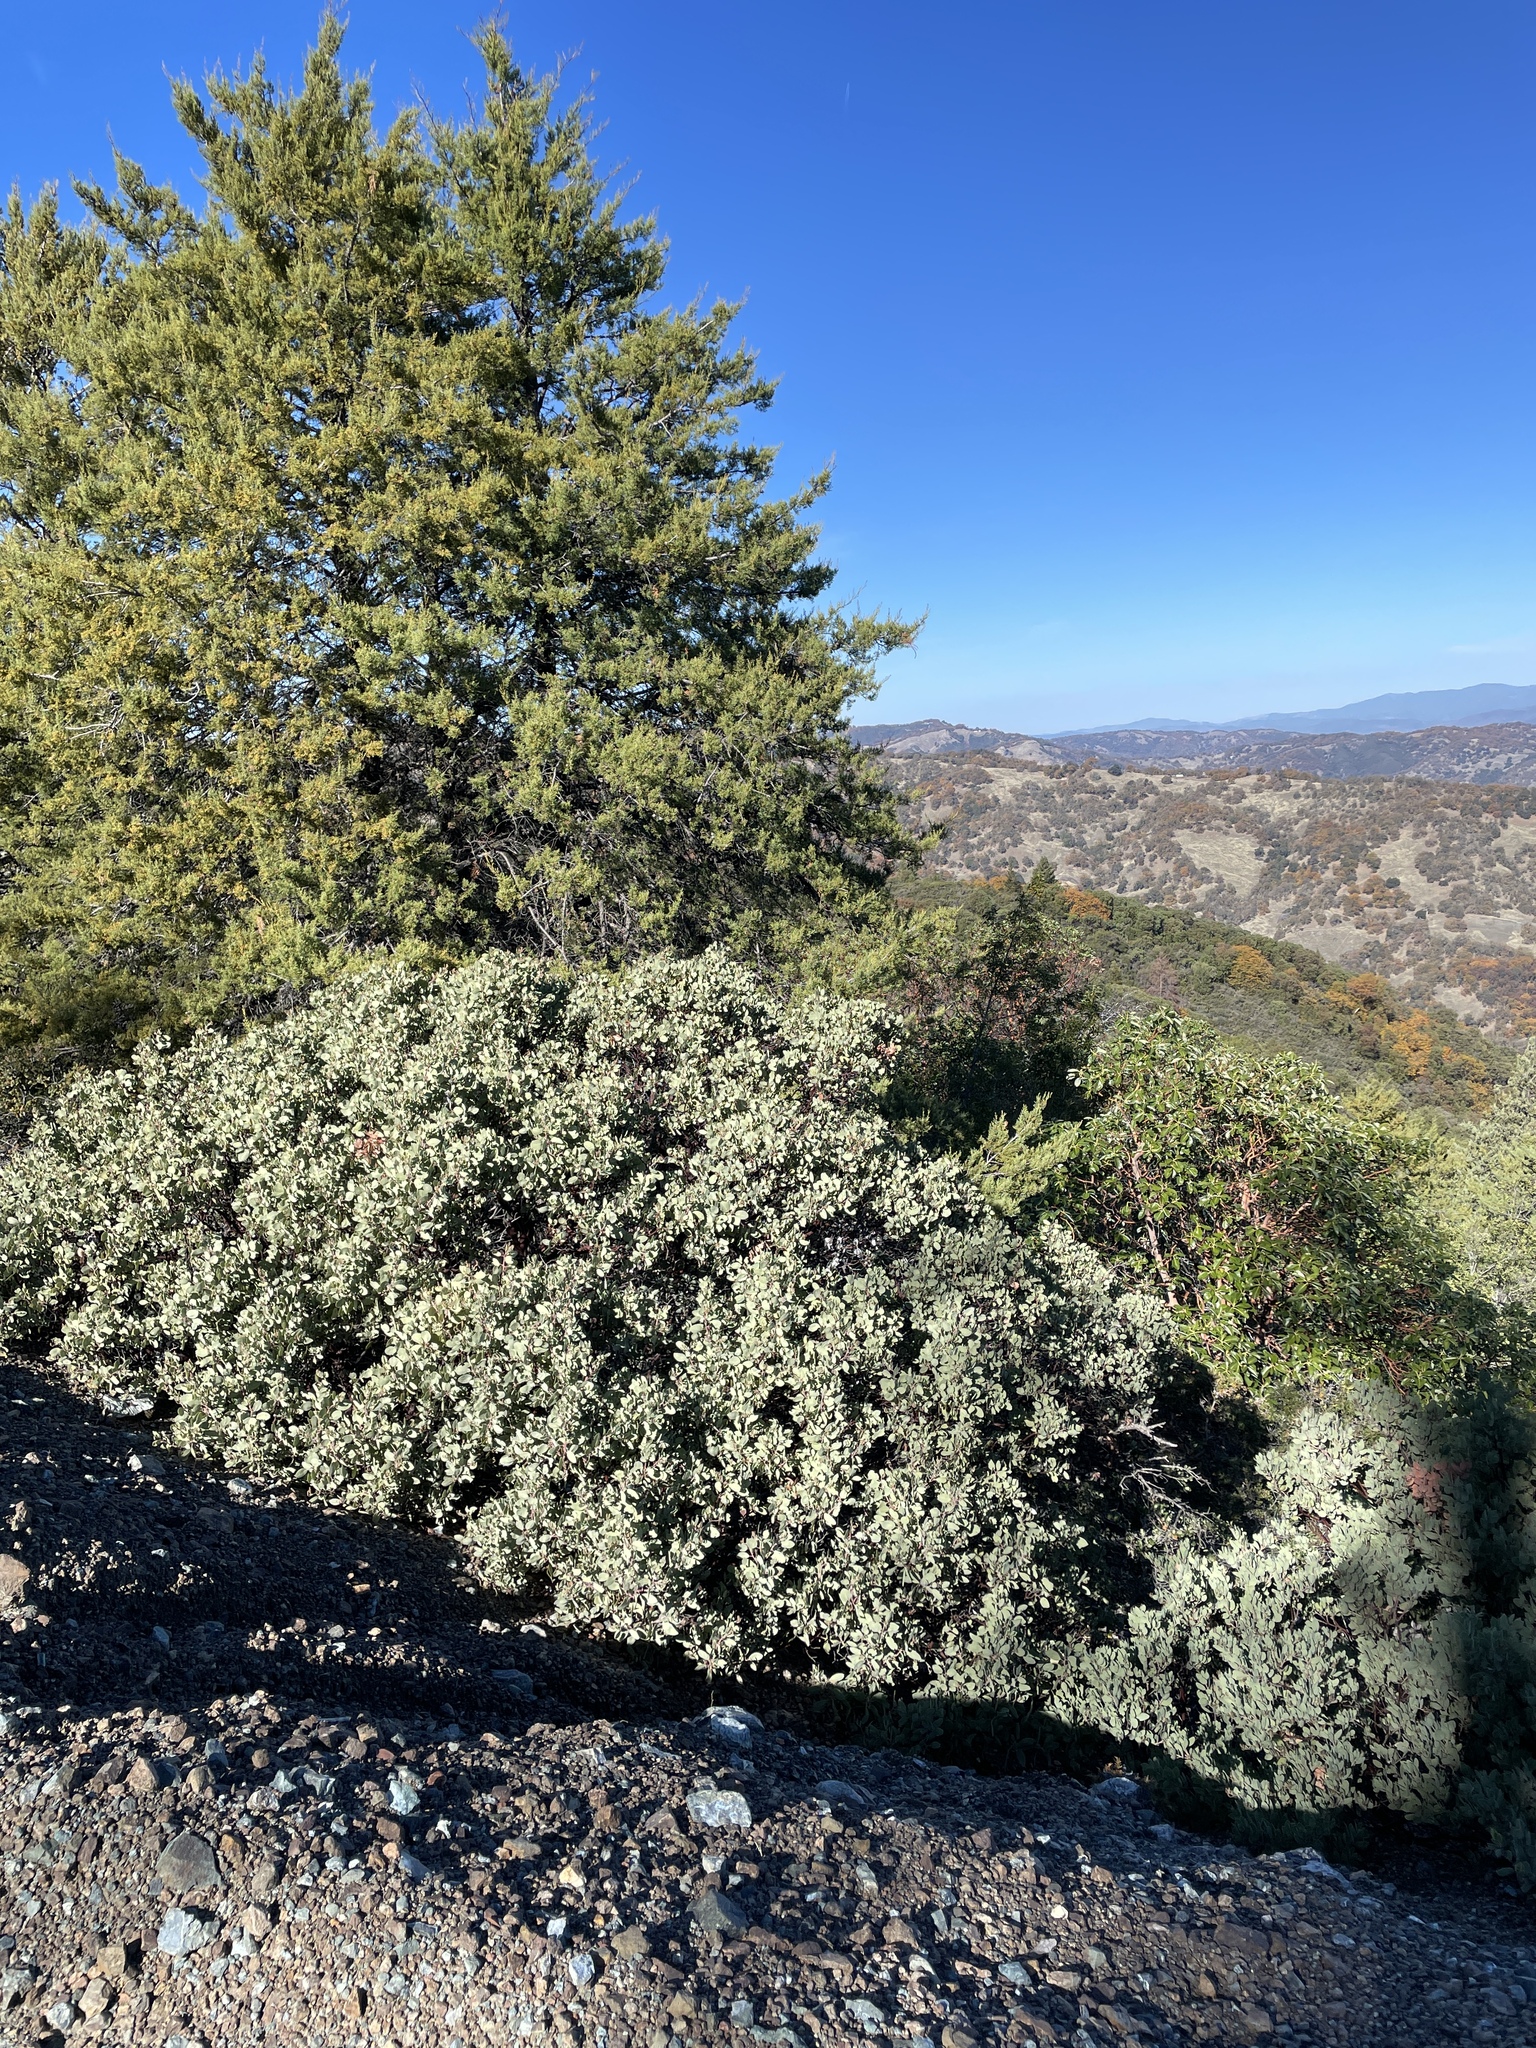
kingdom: Plantae
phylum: Tracheophyta
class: Magnoliopsida
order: Ericales
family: Ericaceae
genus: Arctostaphylos
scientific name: Arctostaphylos viscida
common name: White-leaf manzanita
